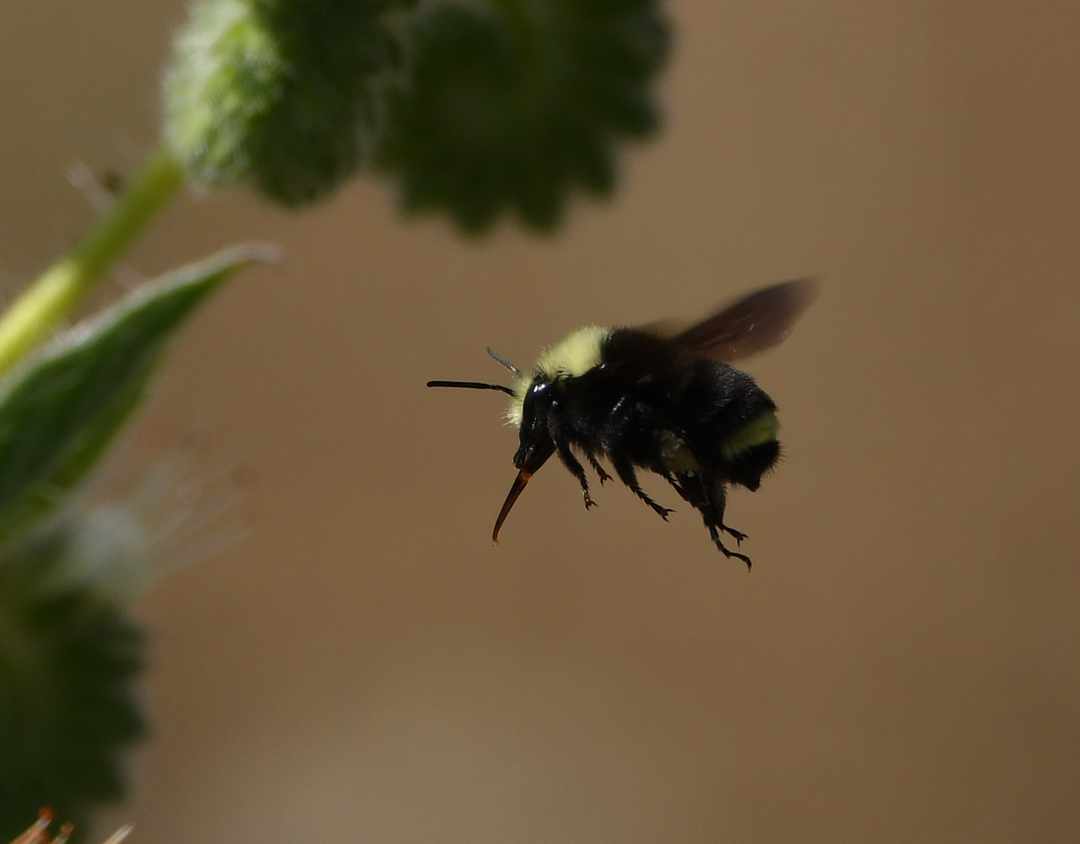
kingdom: Animalia
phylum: Arthropoda
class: Insecta
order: Hymenoptera
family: Apidae
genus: Bombus
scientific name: Bombus vosnesenskii
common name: Vosnesensky bumble bee
